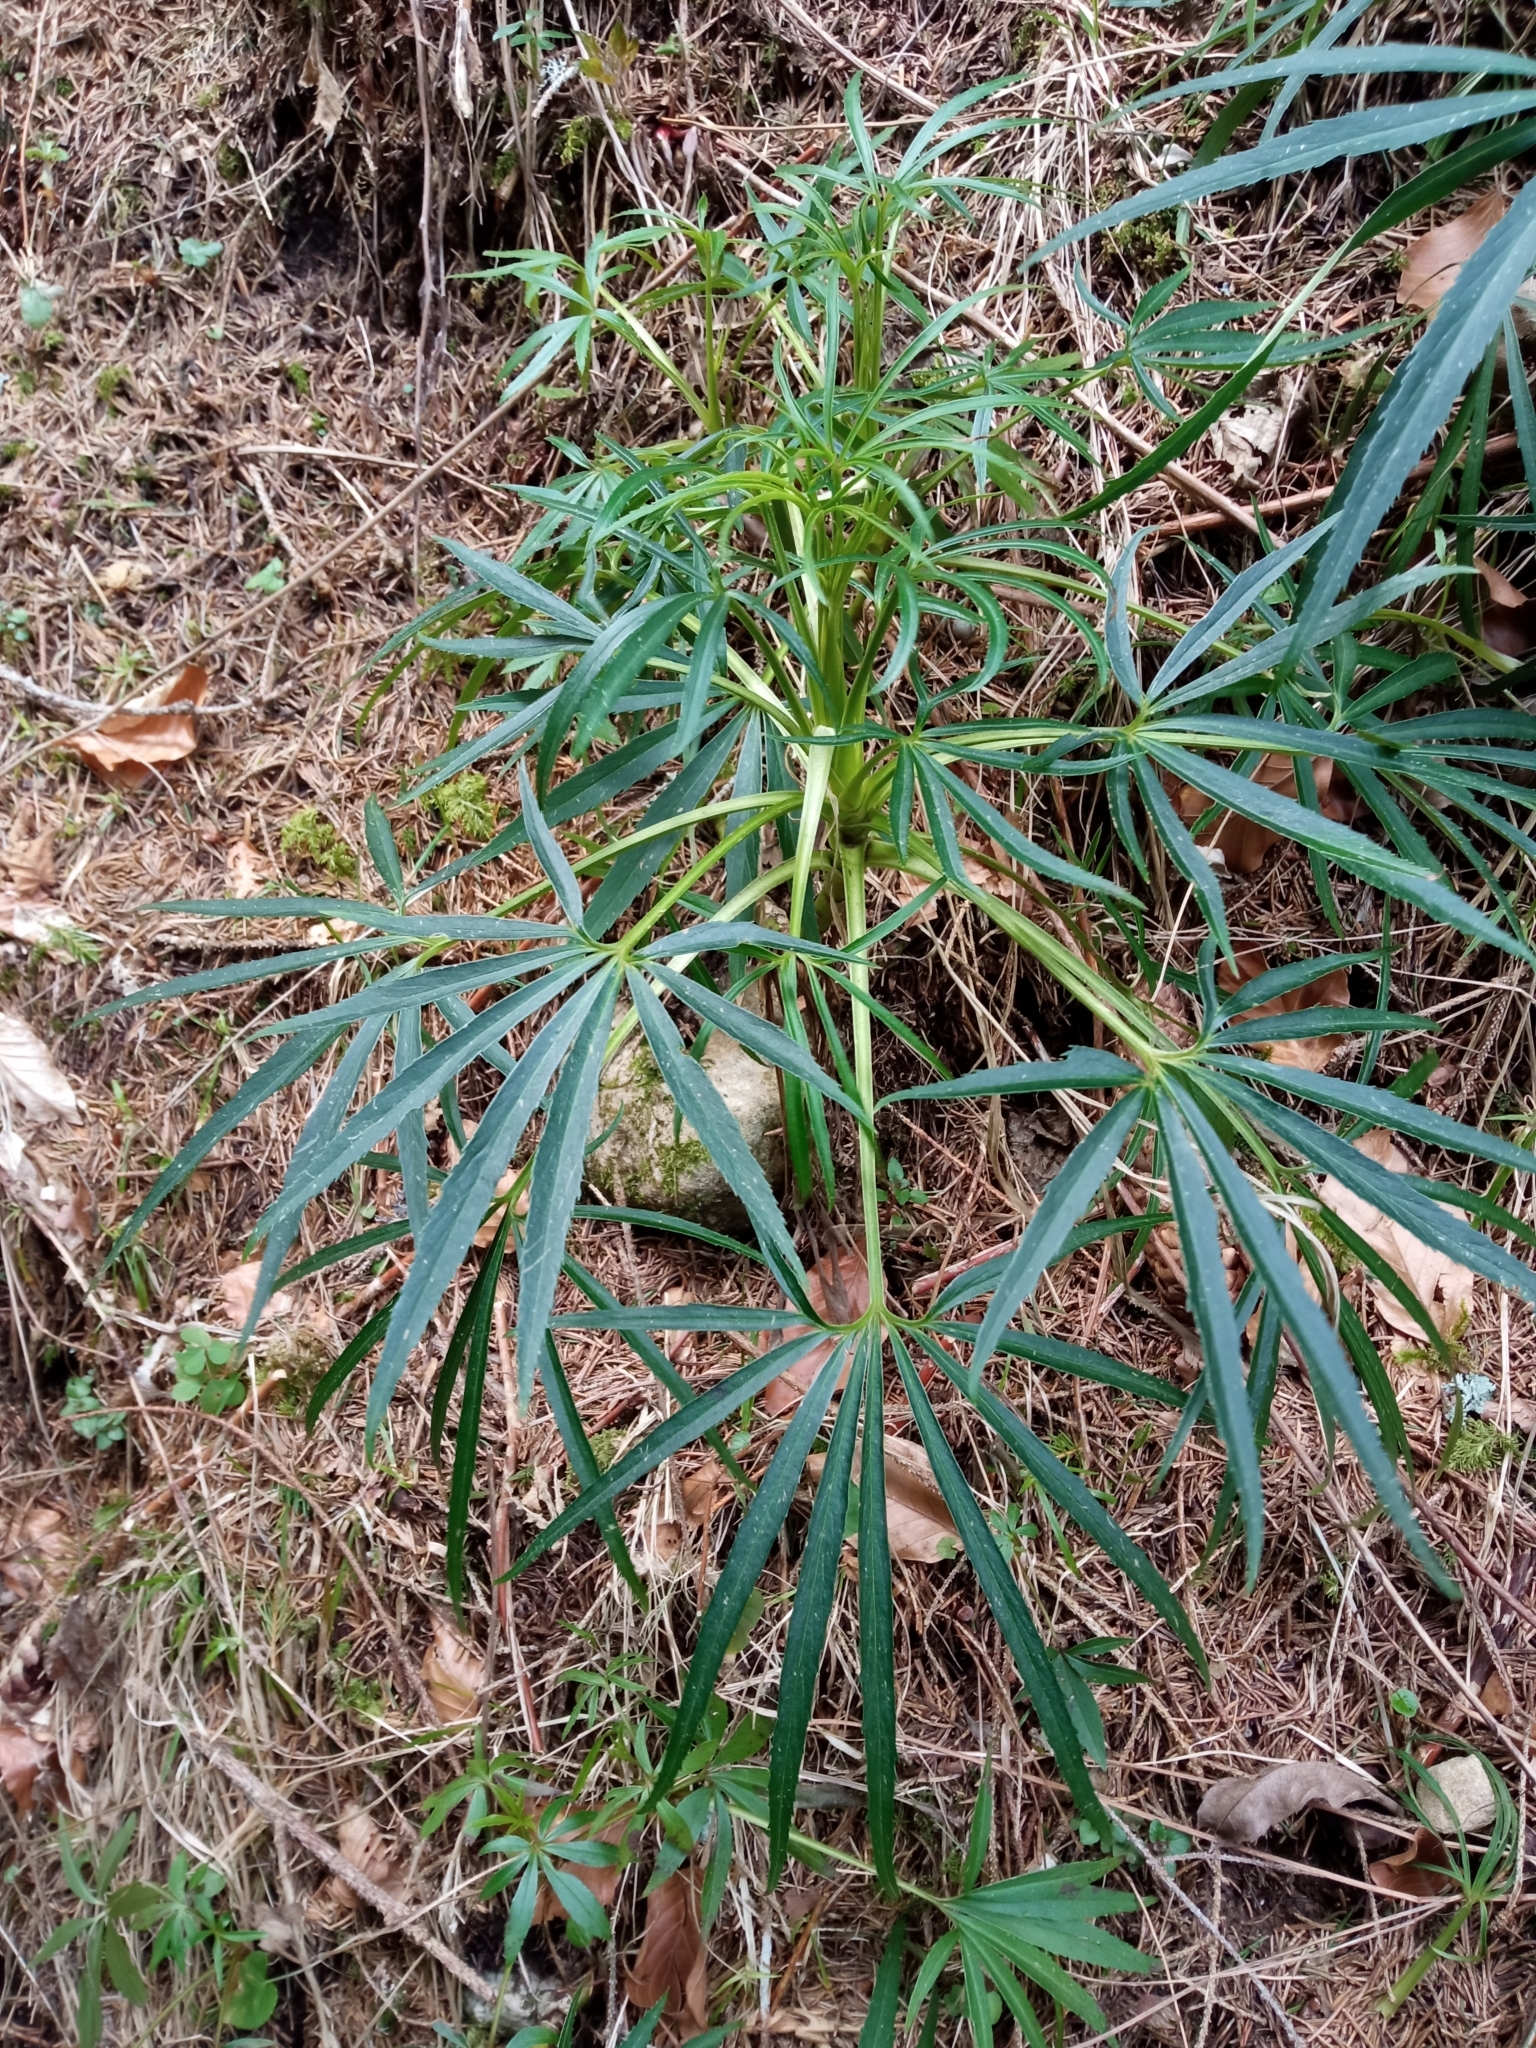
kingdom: Plantae
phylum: Tracheophyta
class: Magnoliopsida
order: Ranunculales
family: Ranunculaceae
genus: Helleborus
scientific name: Helleborus foetidus
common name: Stinking hellebore
